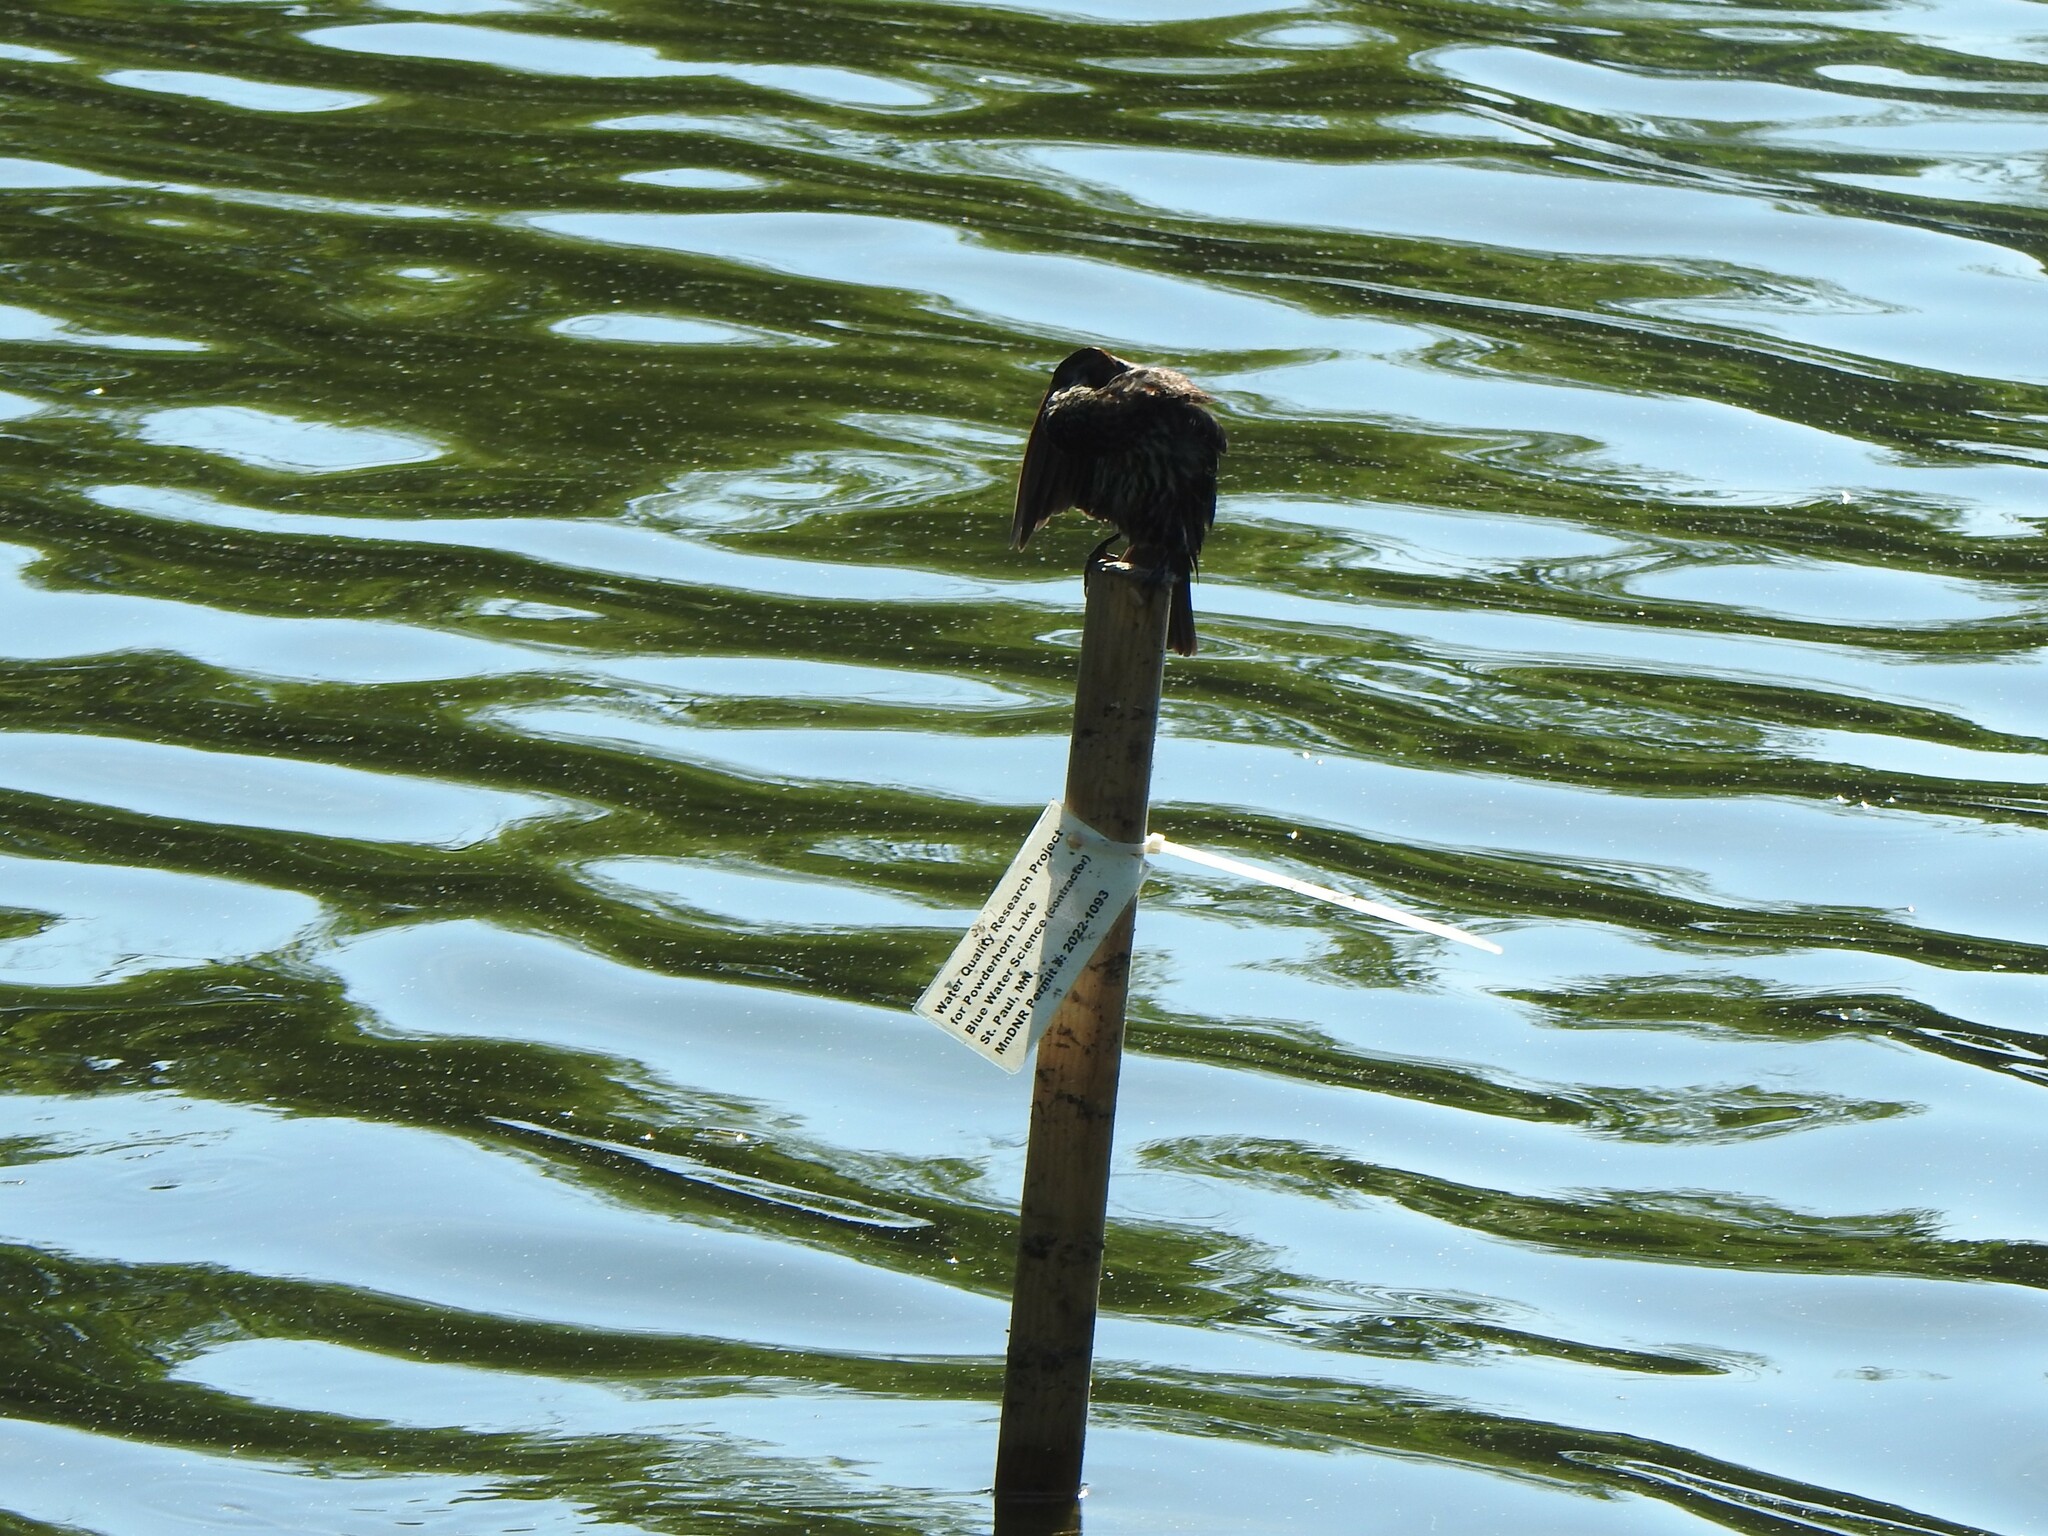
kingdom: Animalia
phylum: Chordata
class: Aves
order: Passeriformes
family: Icteridae
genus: Agelaius
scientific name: Agelaius phoeniceus
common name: Red-winged blackbird
